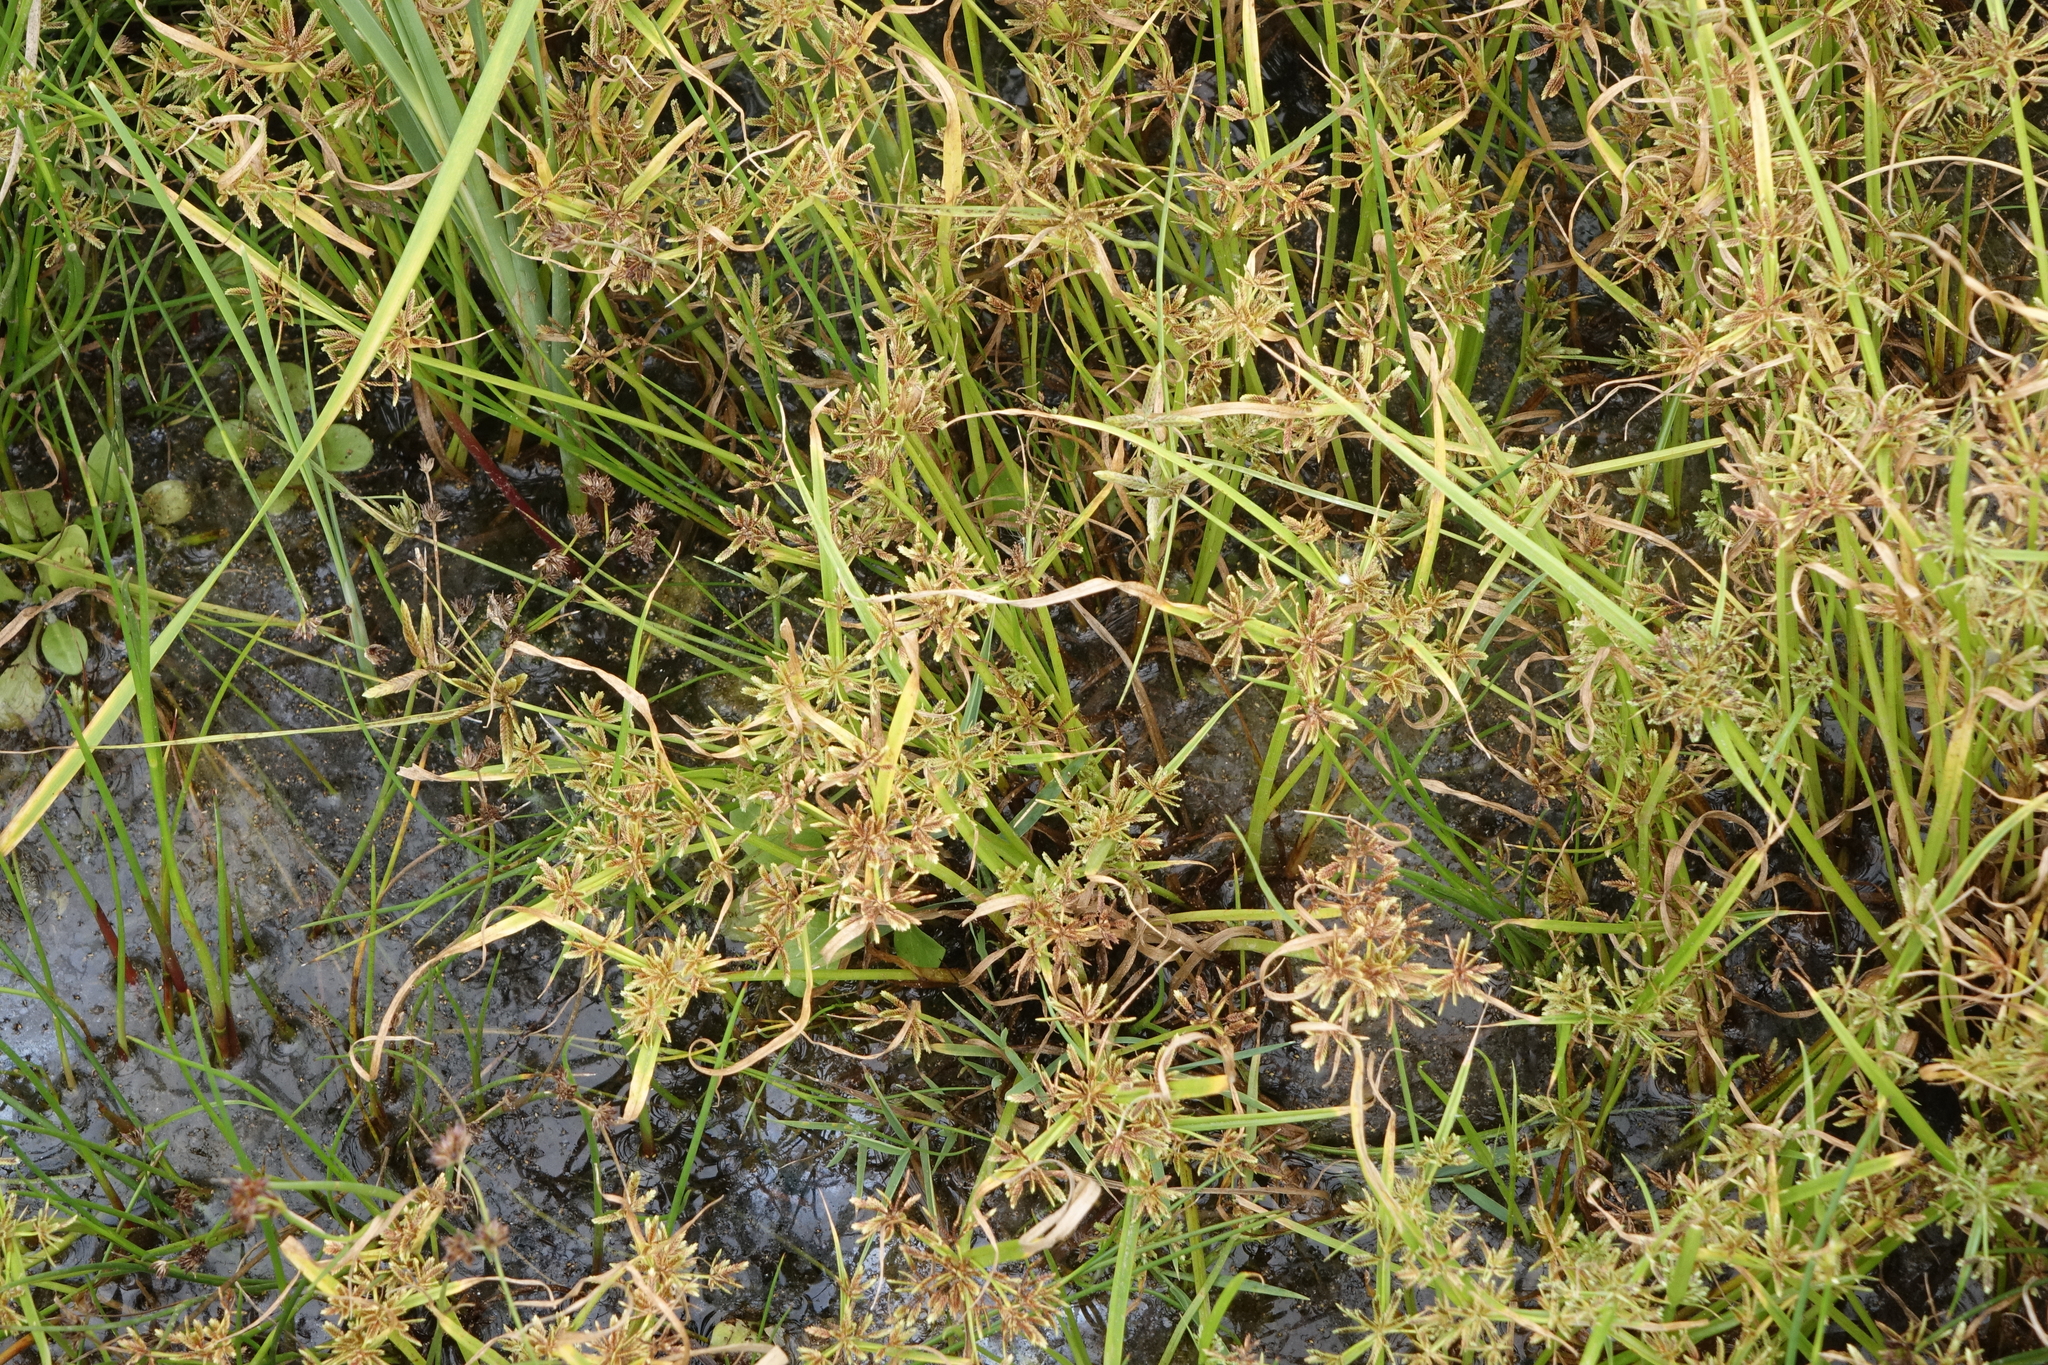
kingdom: Plantae
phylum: Tracheophyta
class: Liliopsida
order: Poales
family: Cyperaceae
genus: Cyperus
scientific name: Cyperus fuscus
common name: Brown galingale
